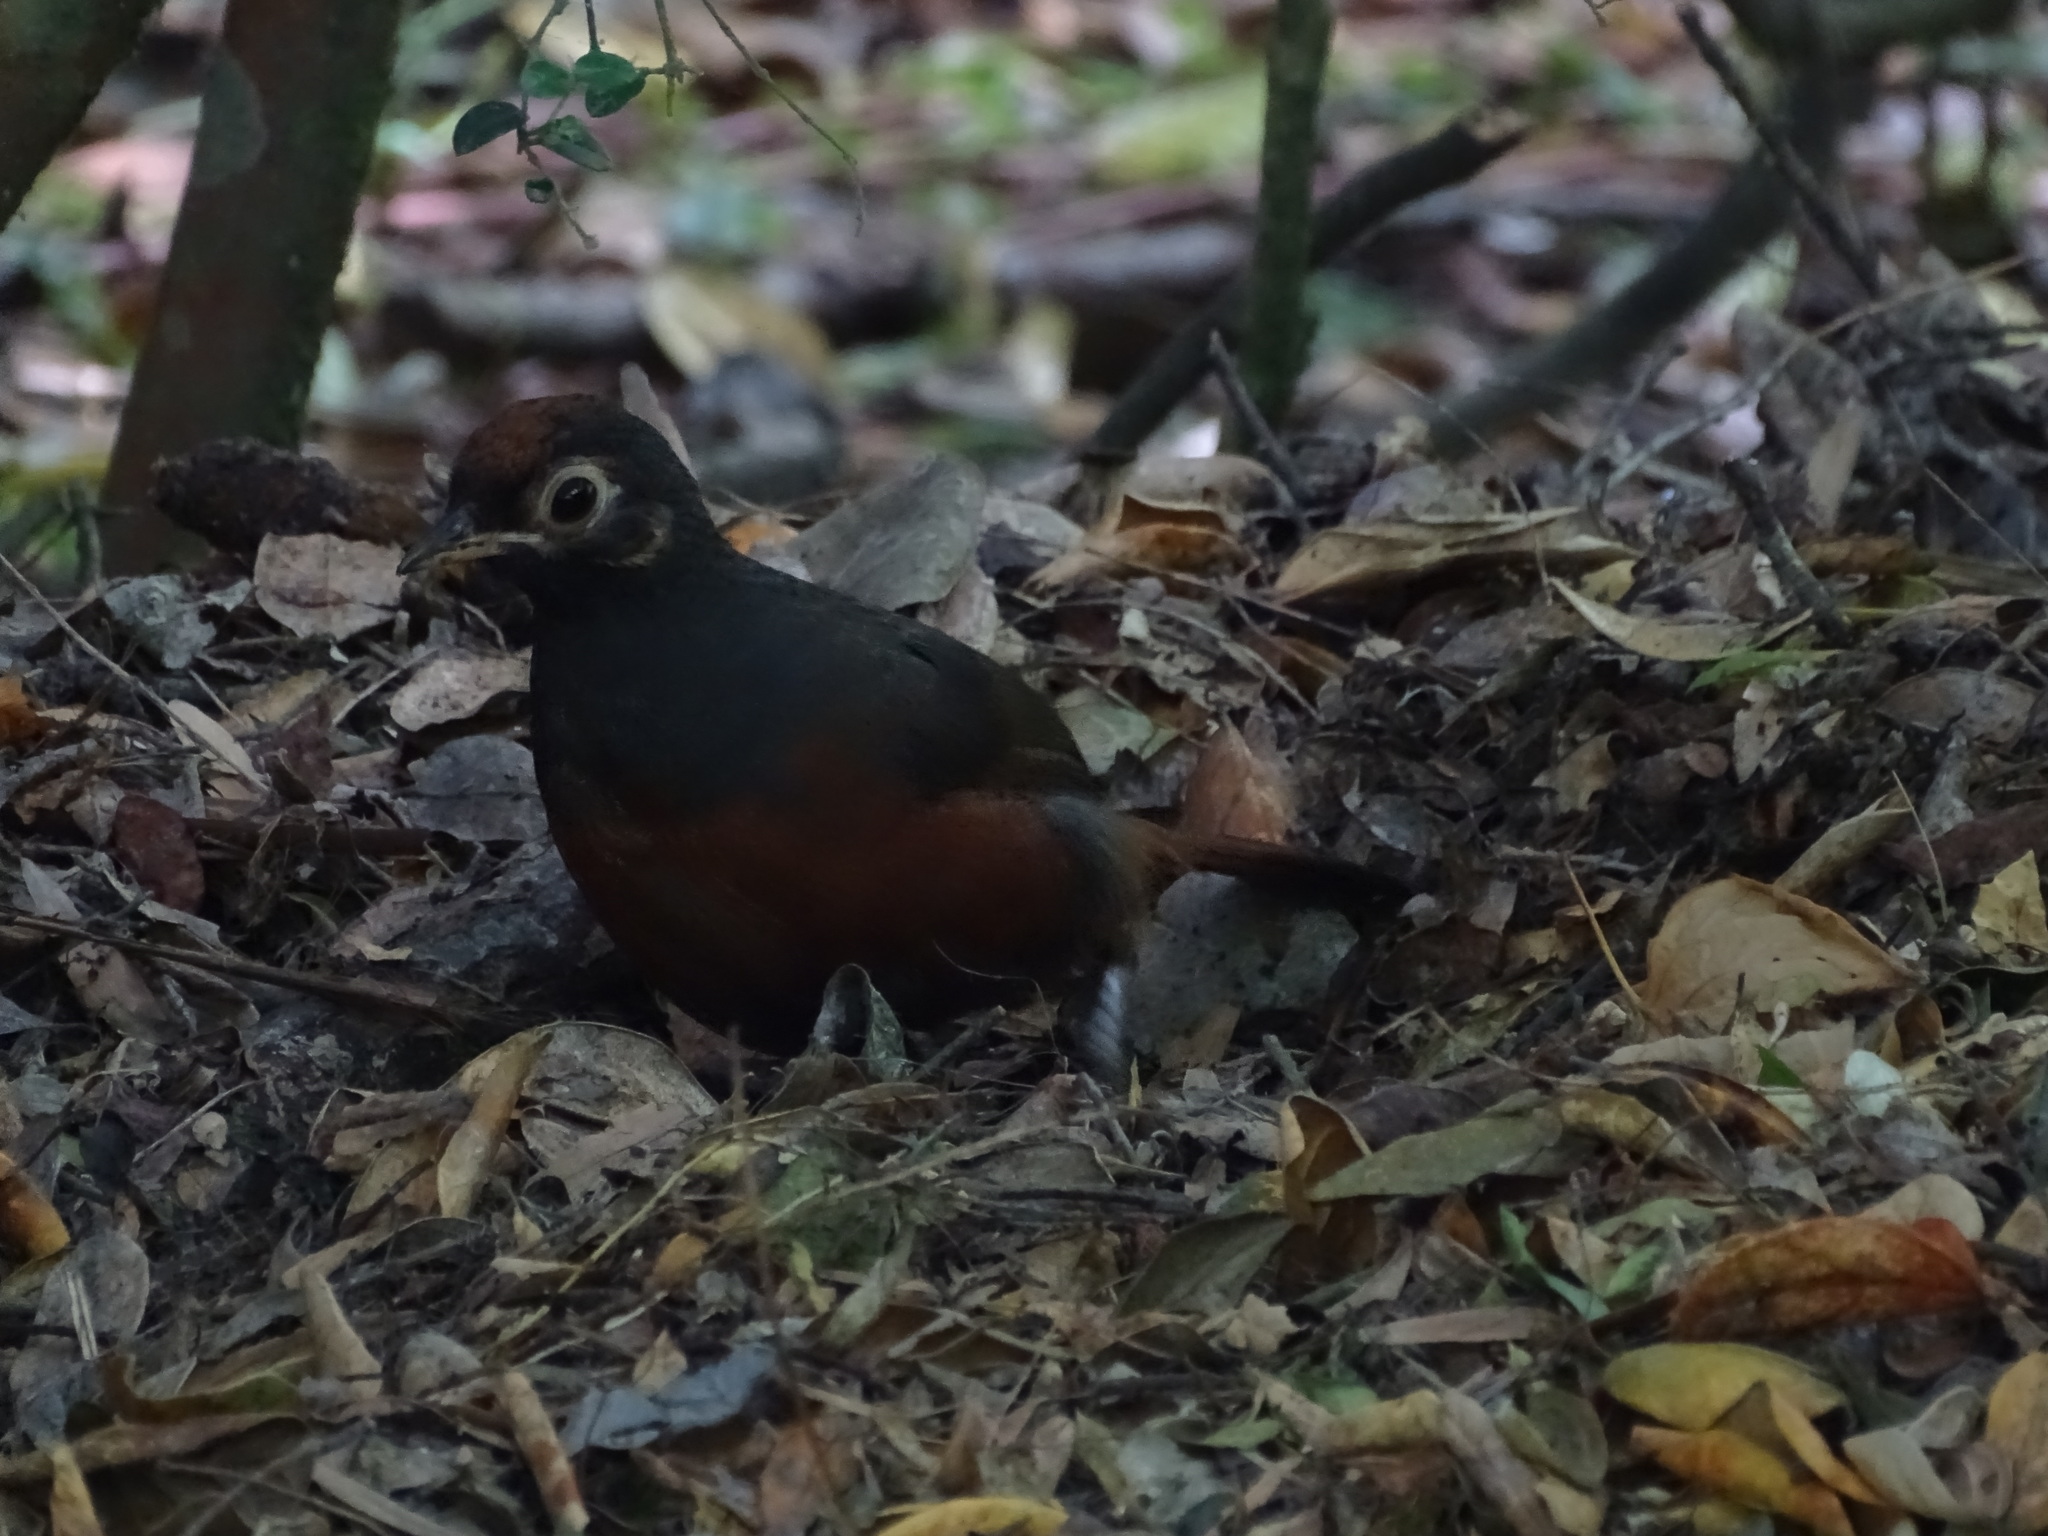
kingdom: Animalia
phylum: Chordata
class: Aves
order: Passeriformes
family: Rhinocryptidae
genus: Pteroptochos
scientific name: Pteroptochos tarnii
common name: Black-throated huet-huet
